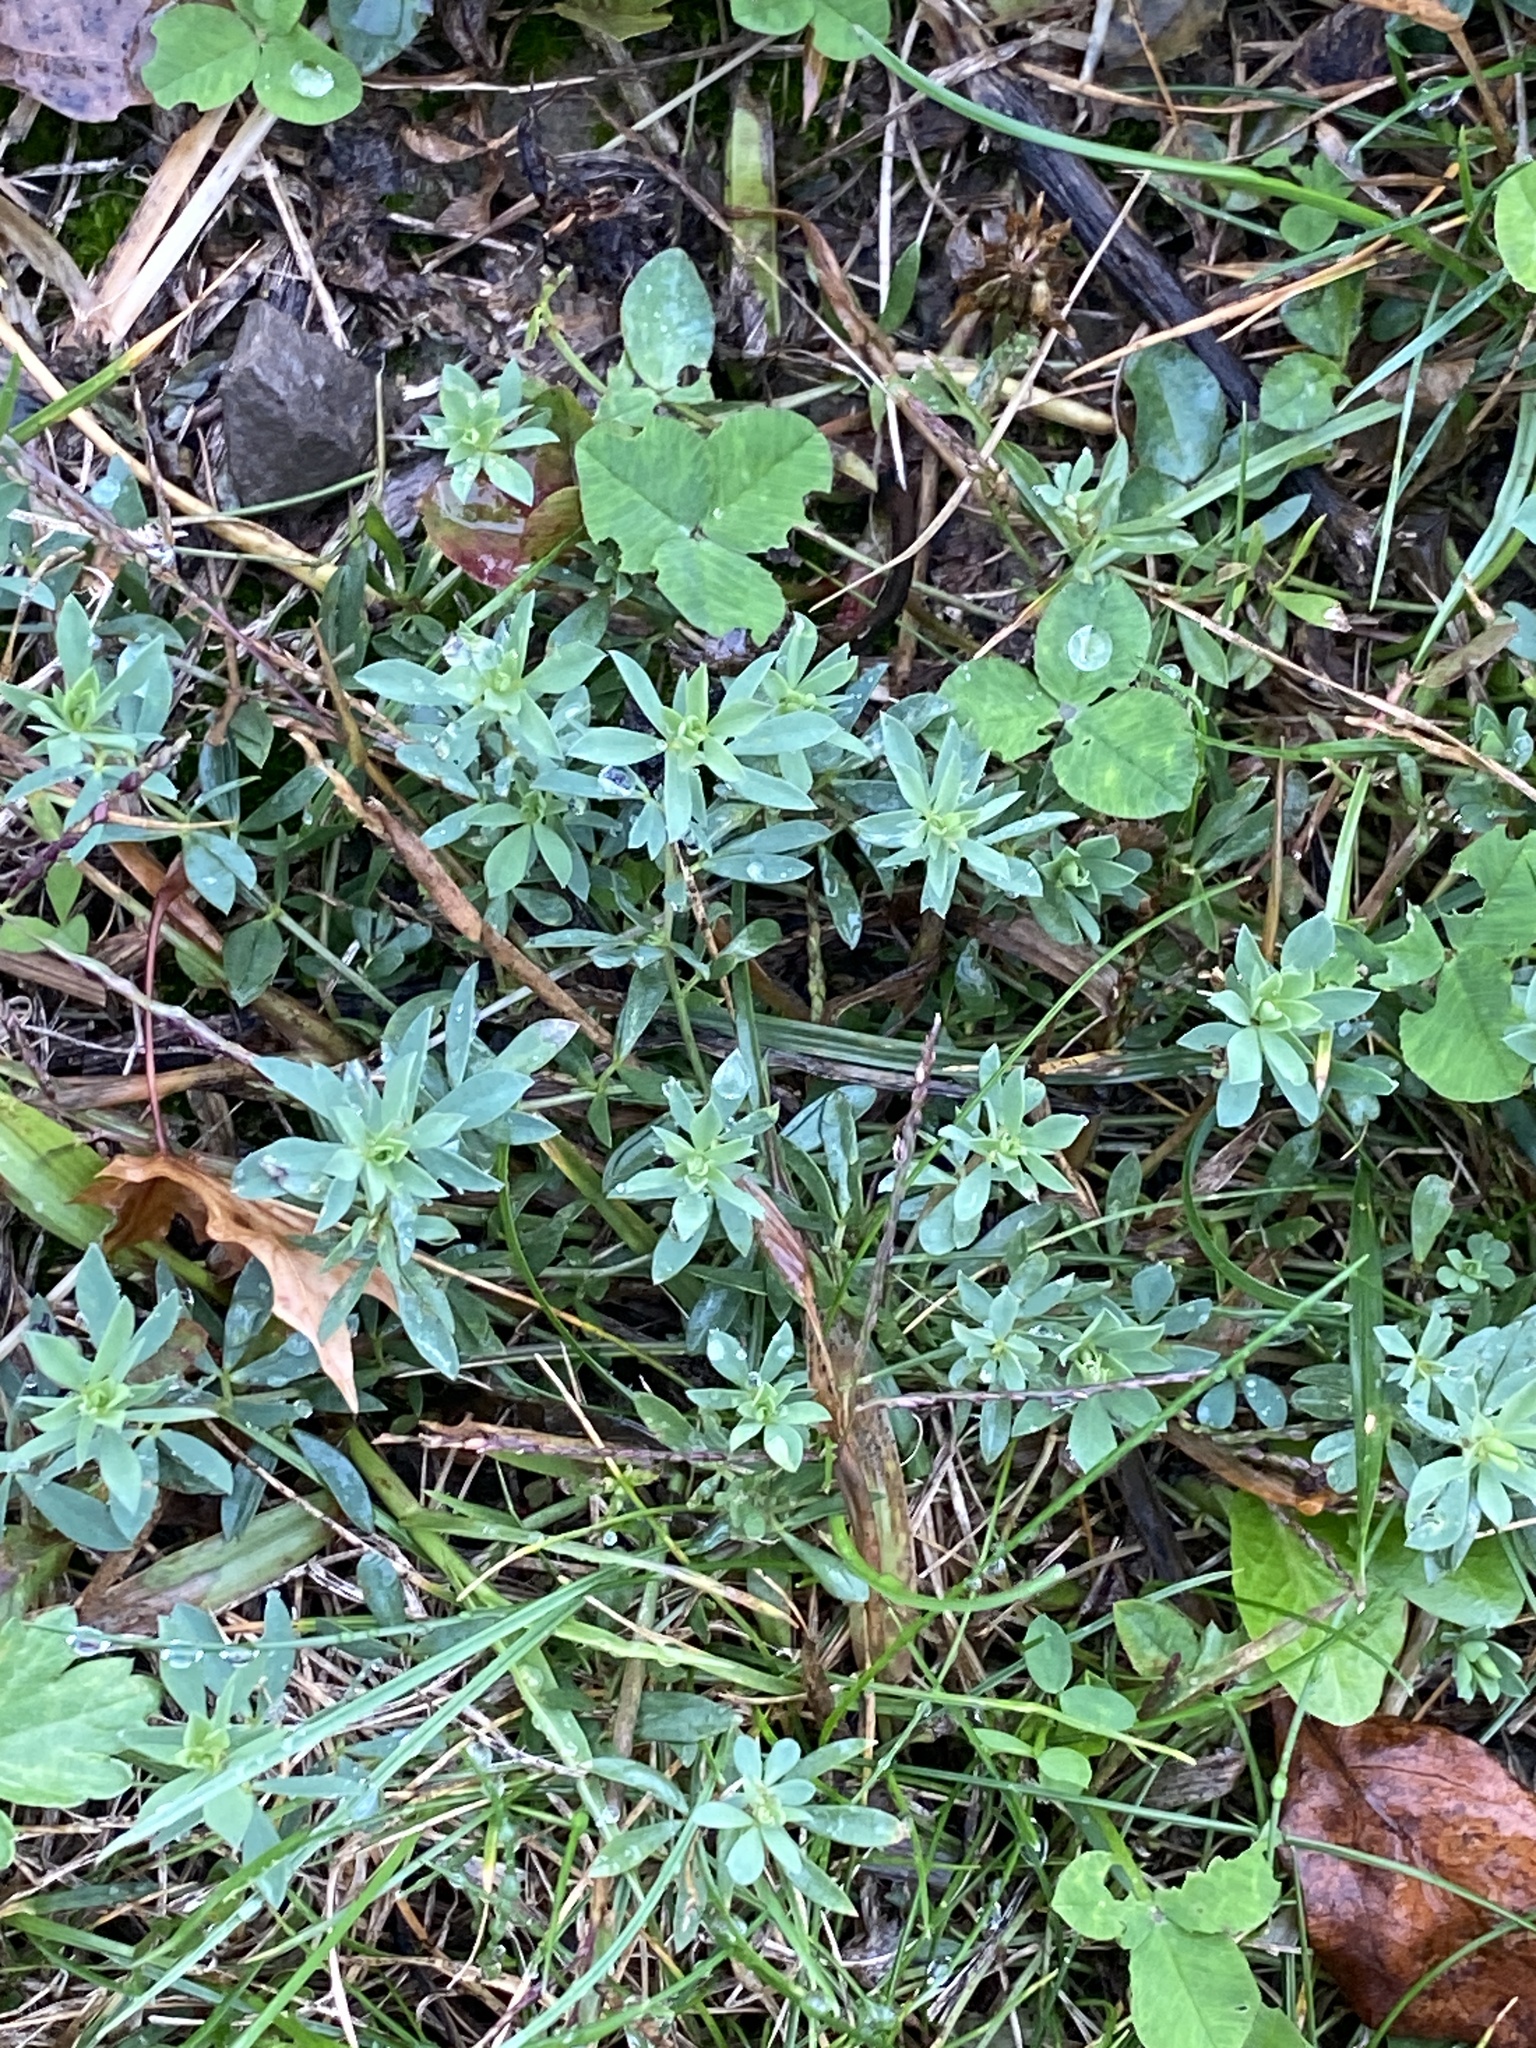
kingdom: Plantae
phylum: Tracheophyta
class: Magnoliopsida
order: Fabales
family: Fabaceae
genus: Lotus
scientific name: Lotus tenuis
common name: Narrow-leaved bird's-foot-trefoil
